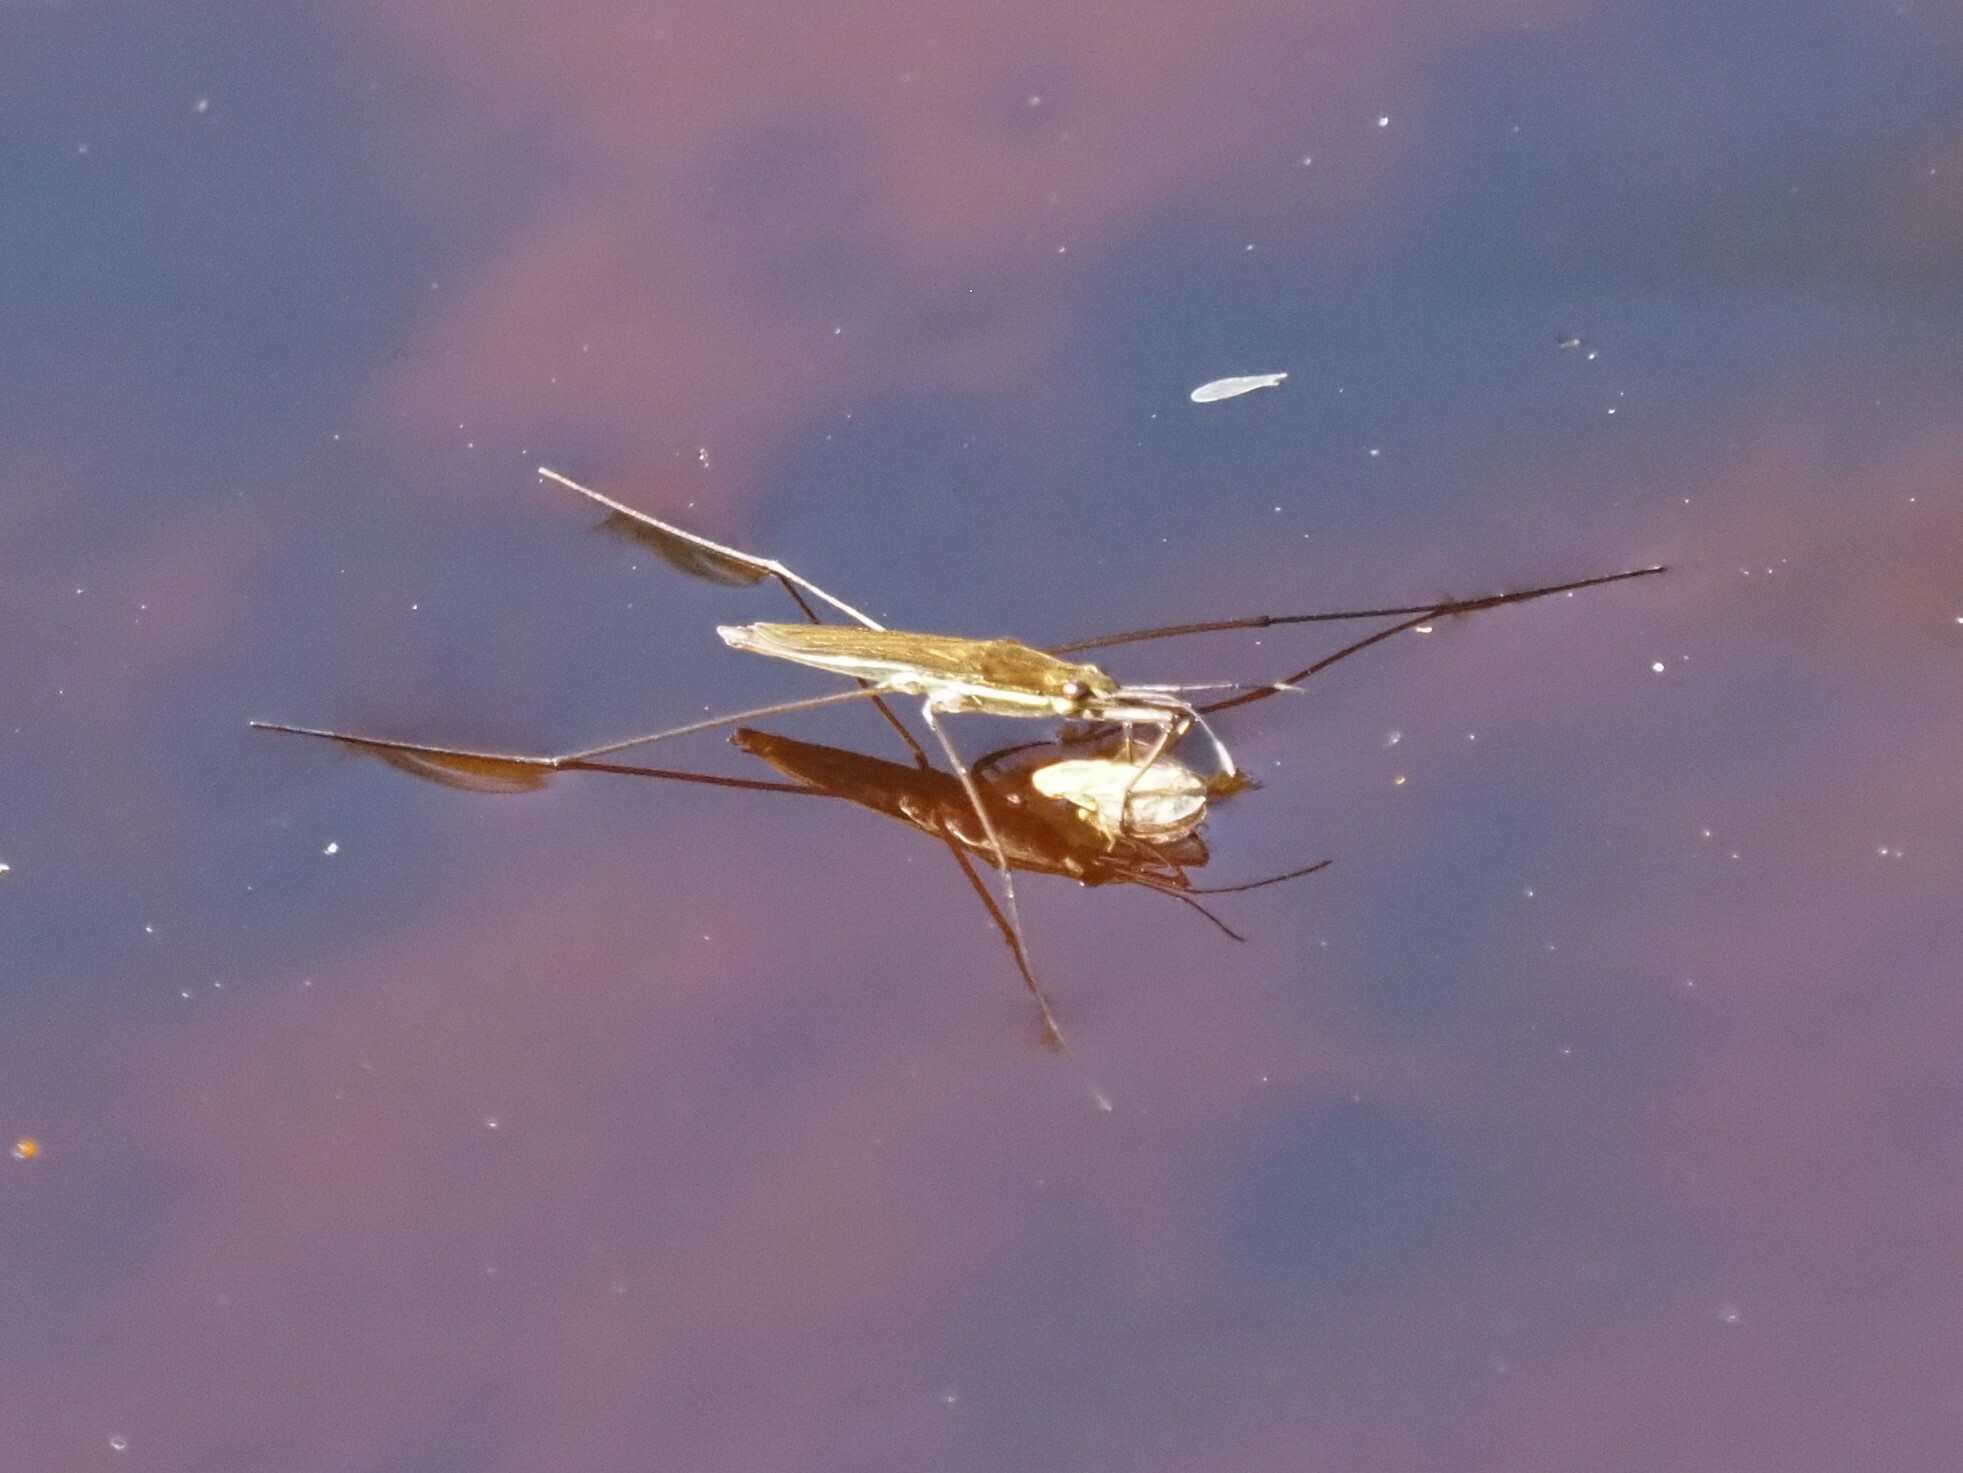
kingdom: Animalia
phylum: Arthropoda
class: Insecta
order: Hemiptera
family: Gerridae
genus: Limnoporus
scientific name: Limnoporus
